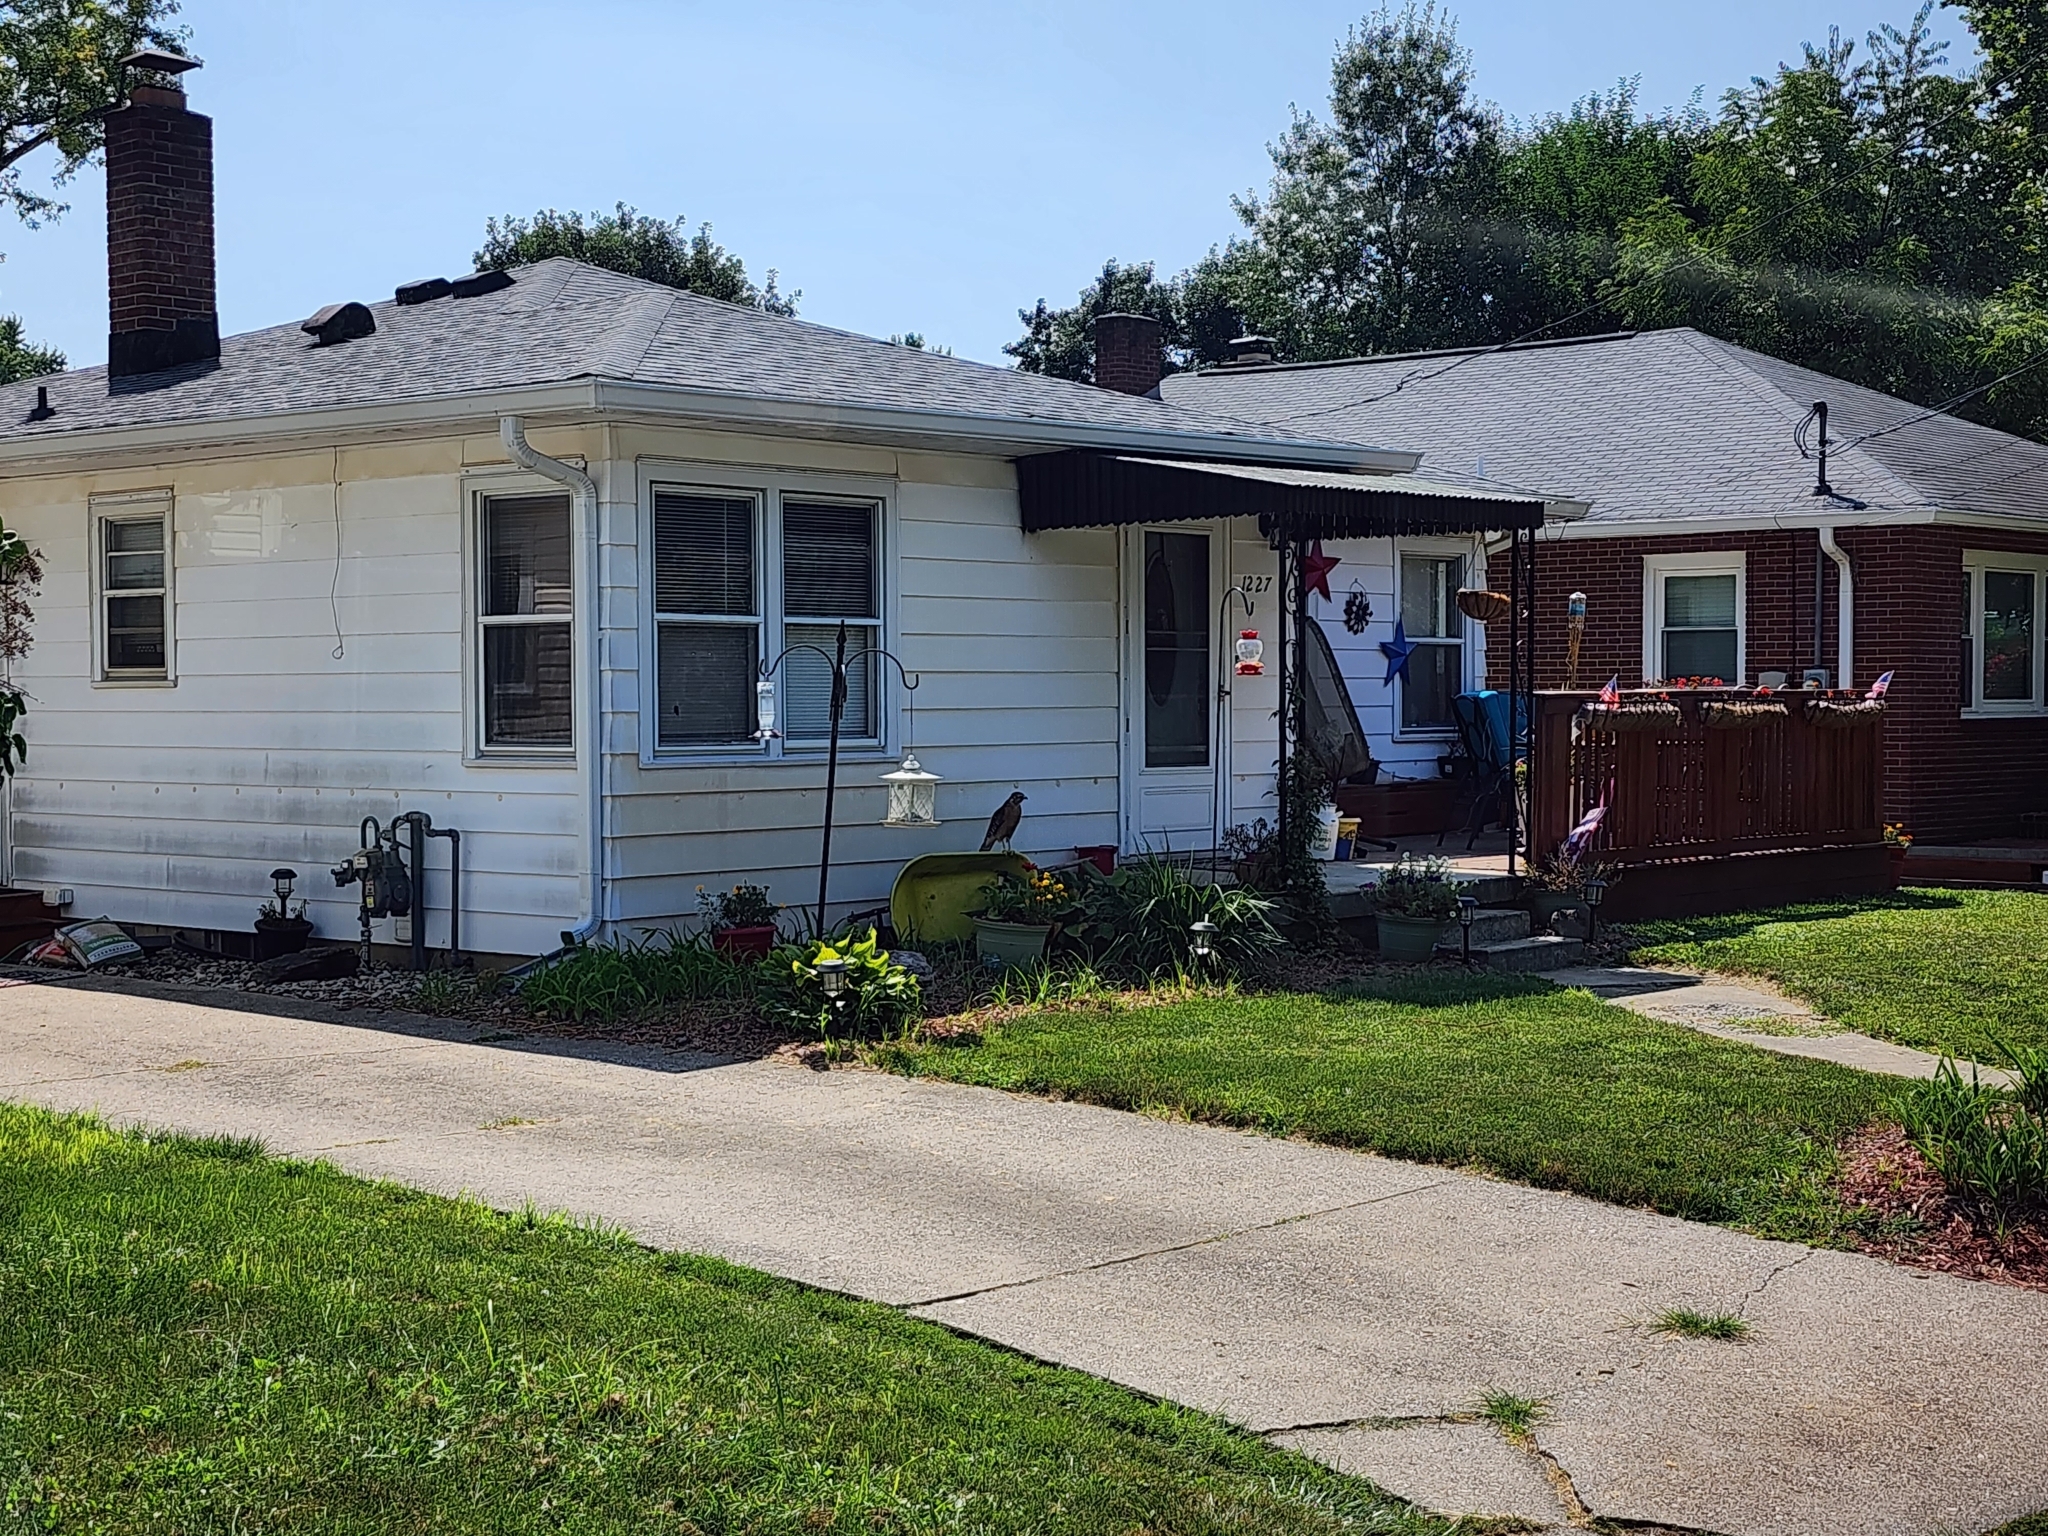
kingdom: Animalia
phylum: Chordata
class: Aves
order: Accipitriformes
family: Accipitridae
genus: Buteo
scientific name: Buteo lineatus
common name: Red-shouldered hawk
